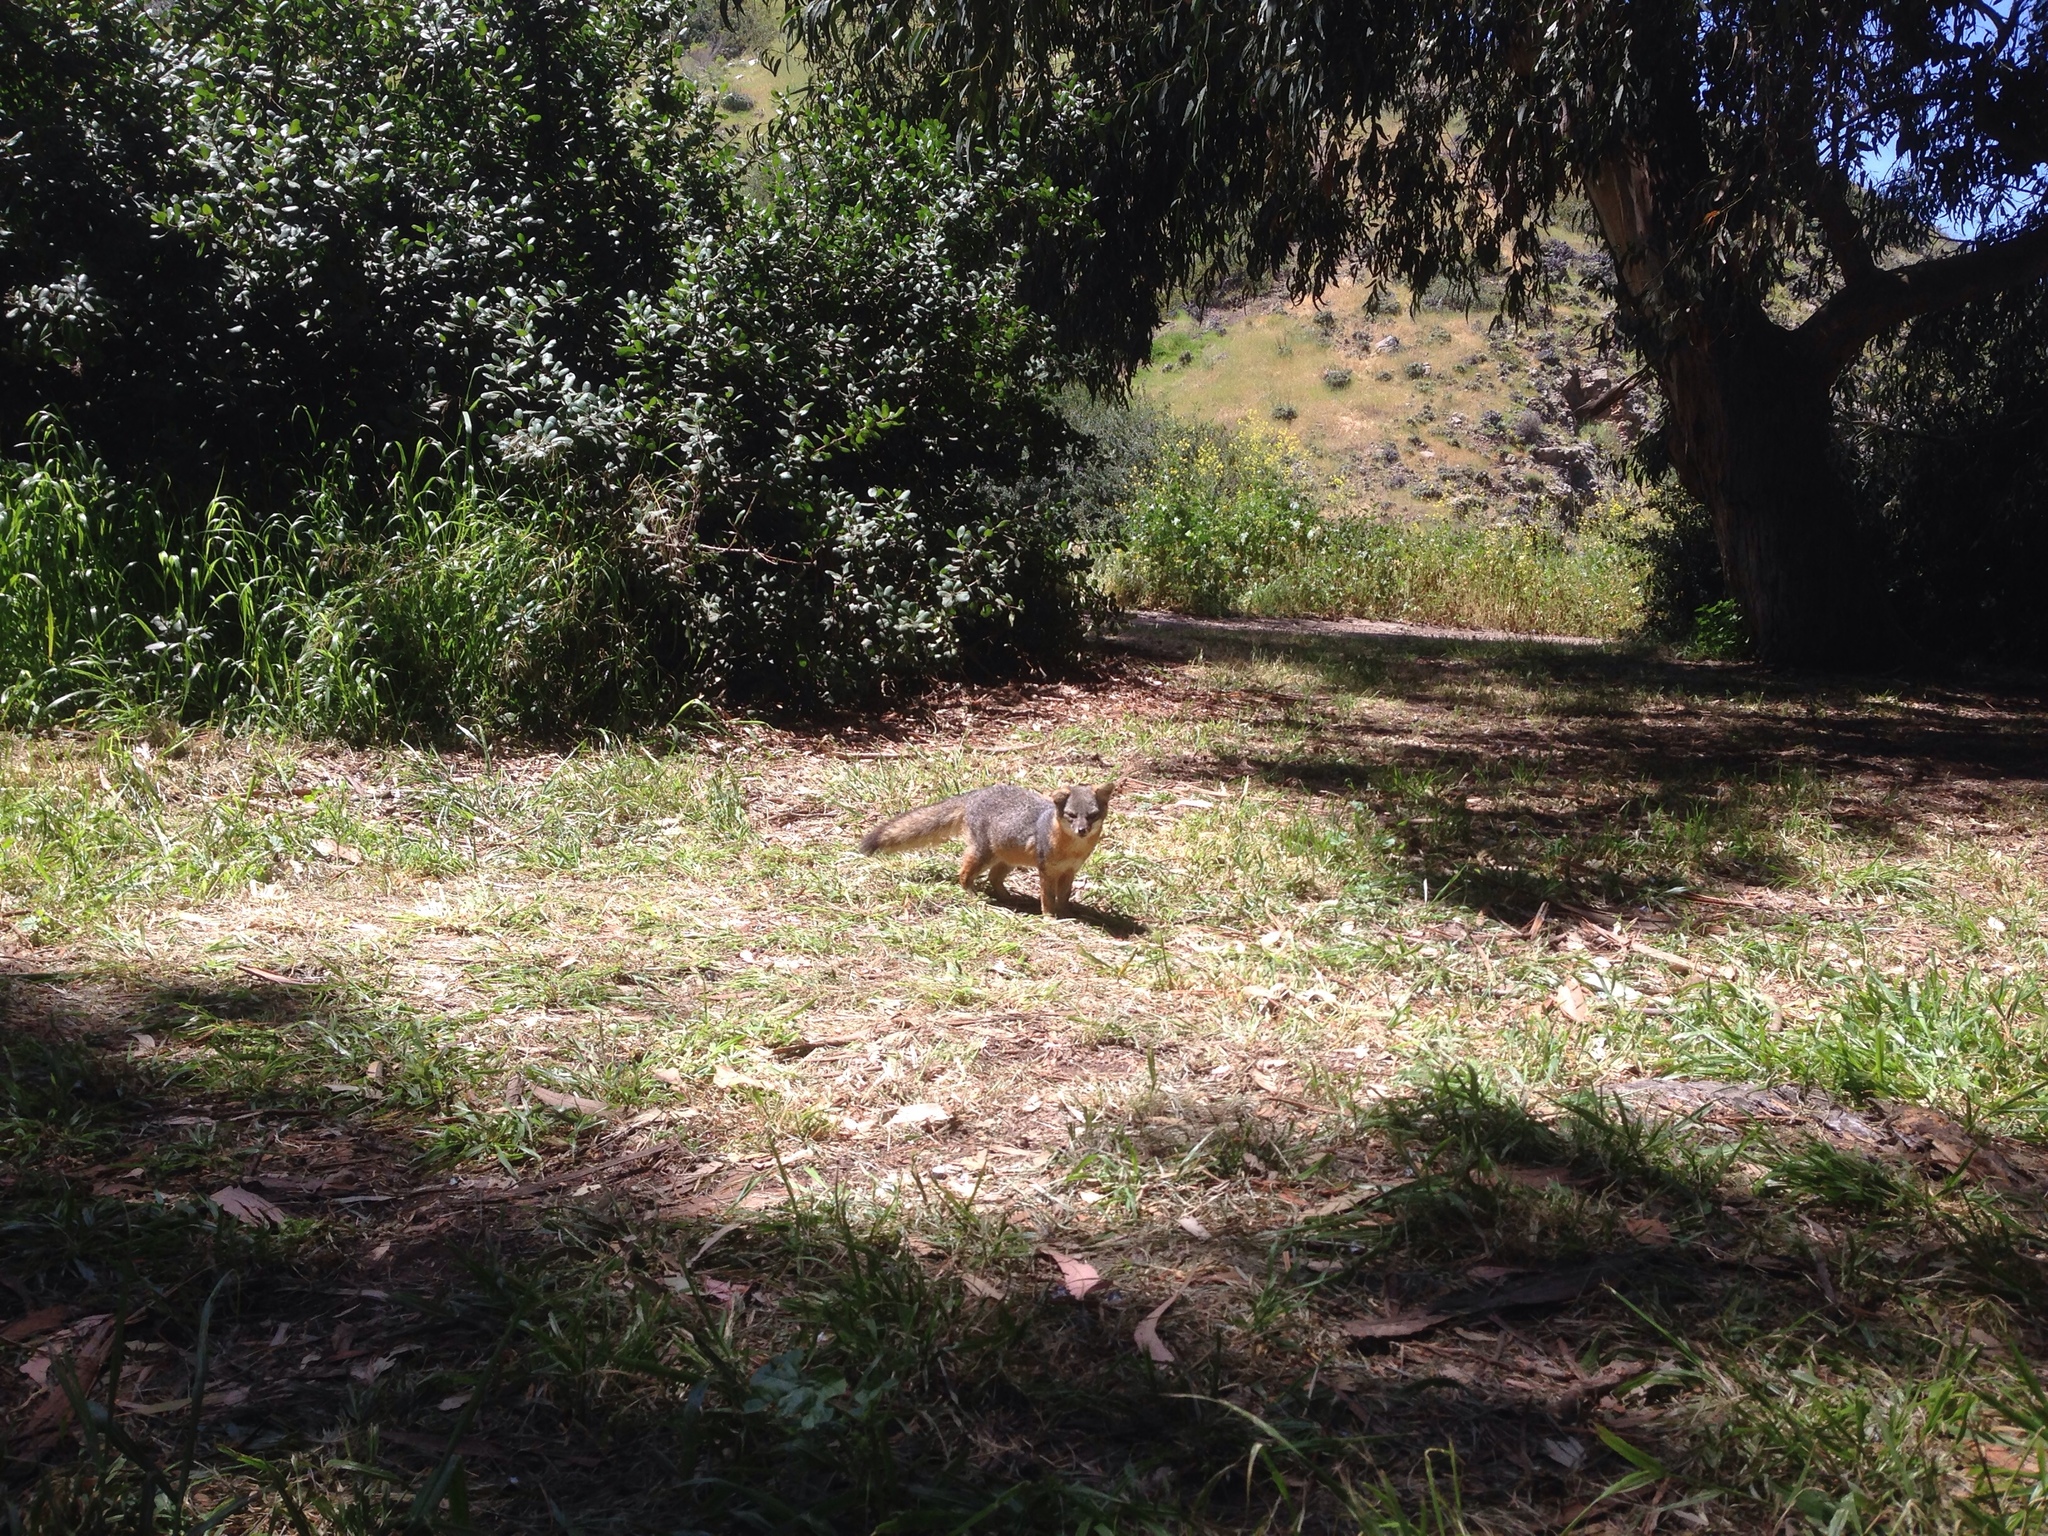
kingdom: Animalia
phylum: Chordata
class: Mammalia
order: Carnivora
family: Canidae
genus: Urocyon
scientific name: Urocyon littoralis
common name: Island gray fox
